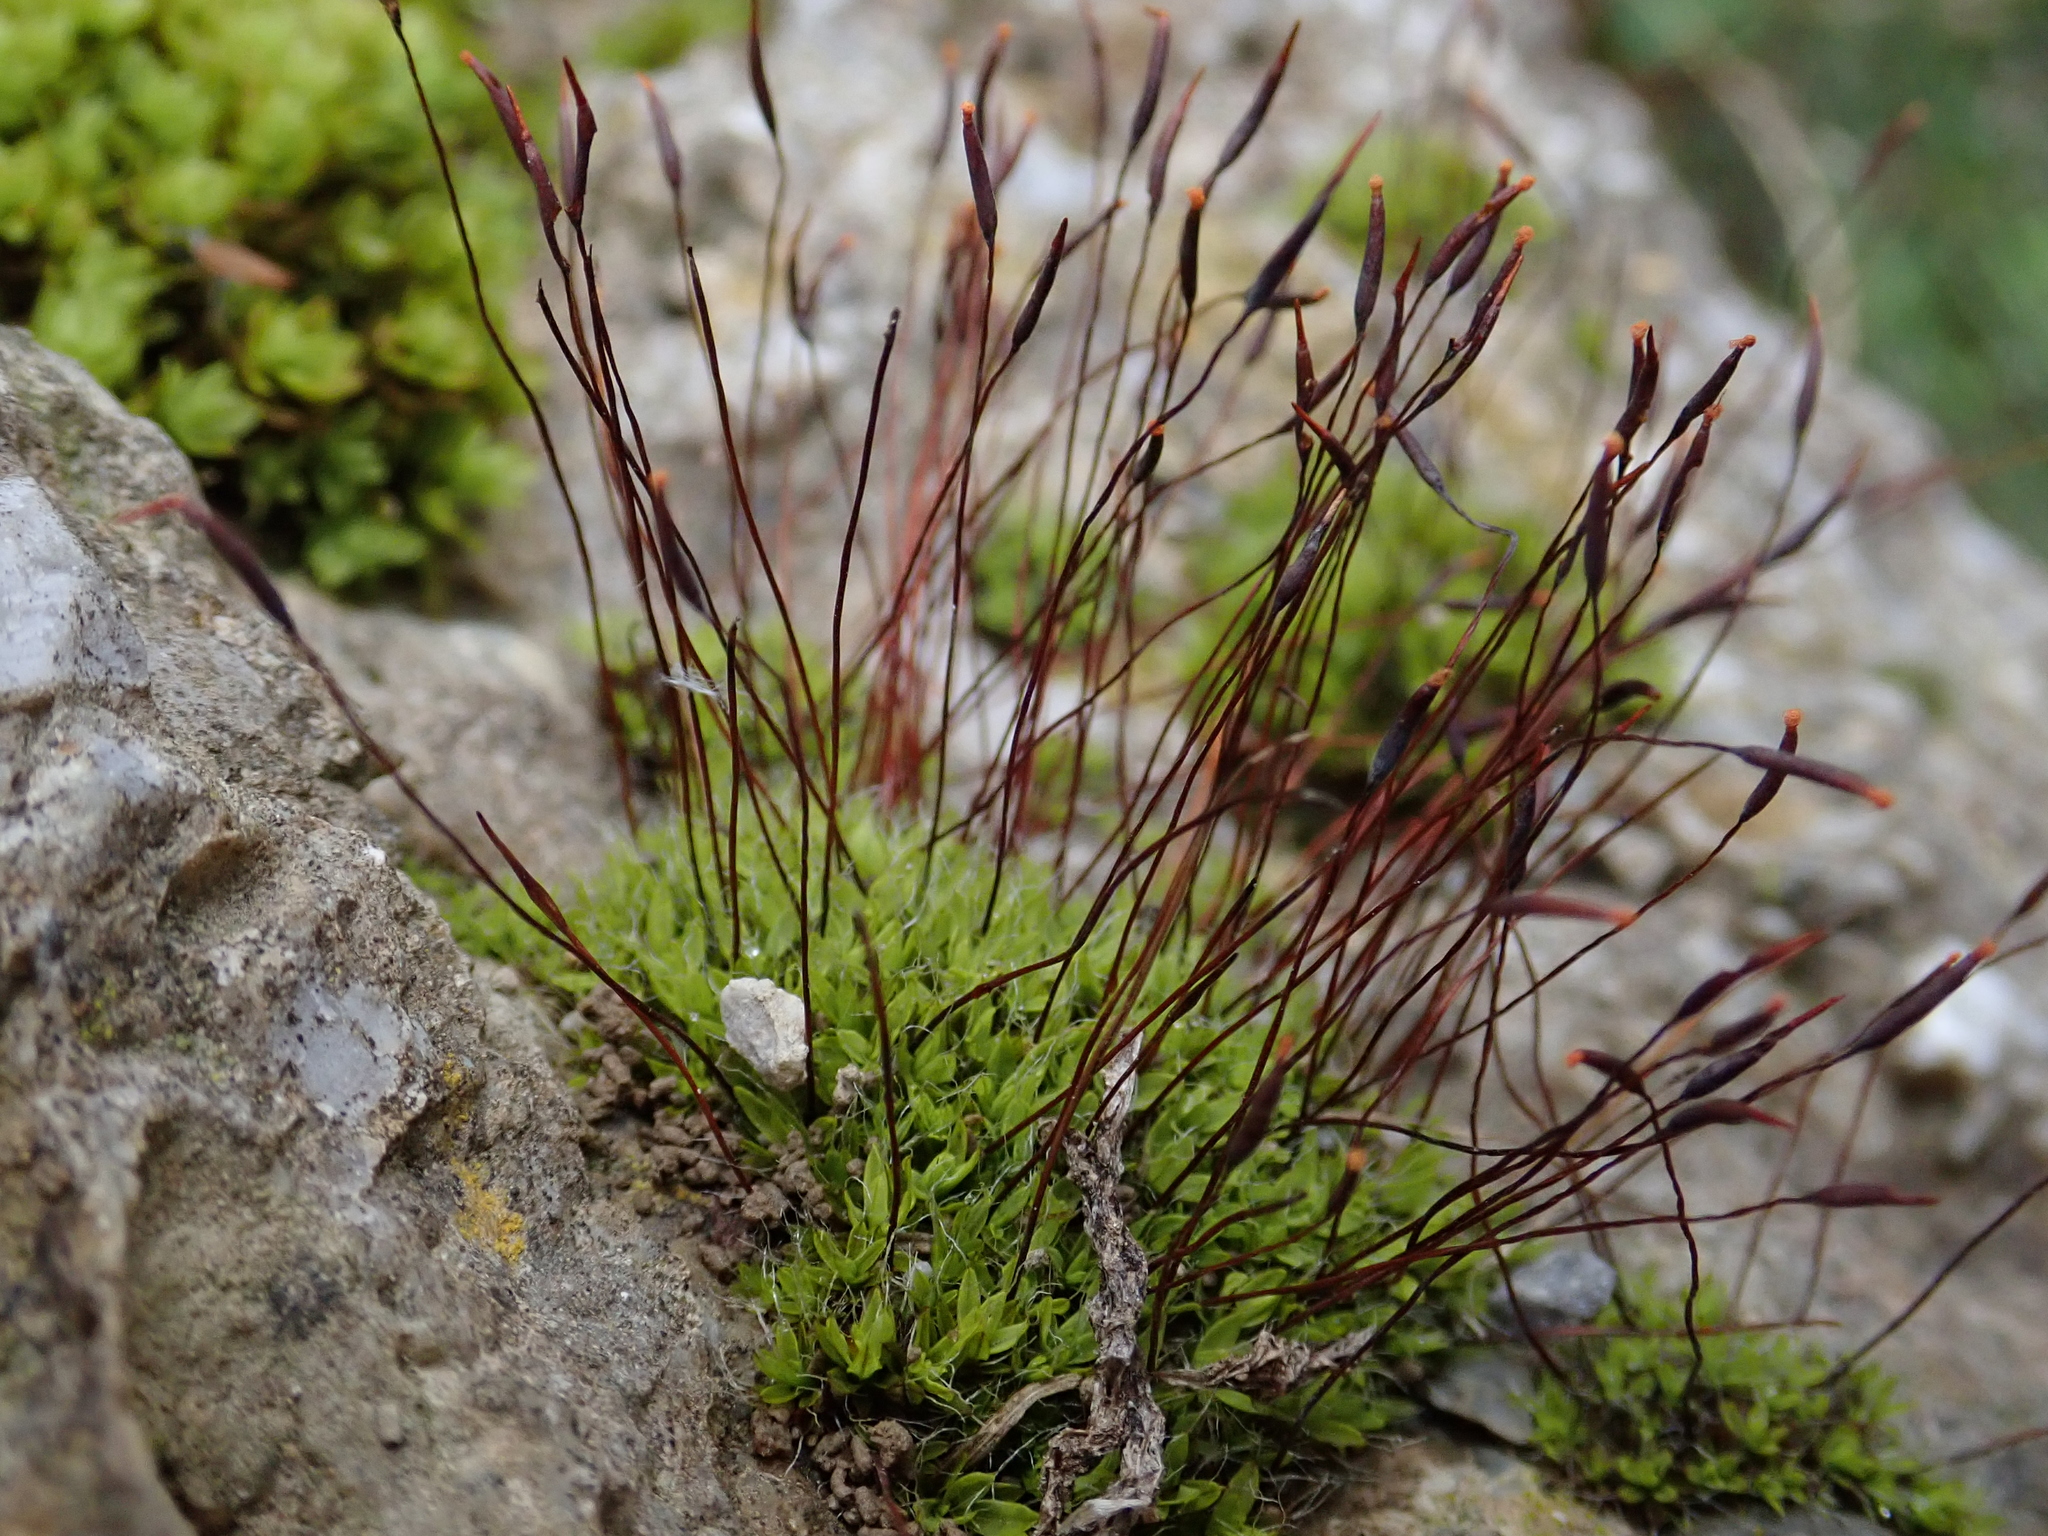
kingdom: Plantae
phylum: Bryophyta
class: Bryopsida
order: Pottiales
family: Pottiaceae
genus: Tortula
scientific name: Tortula muralis
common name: Wall screw-moss
